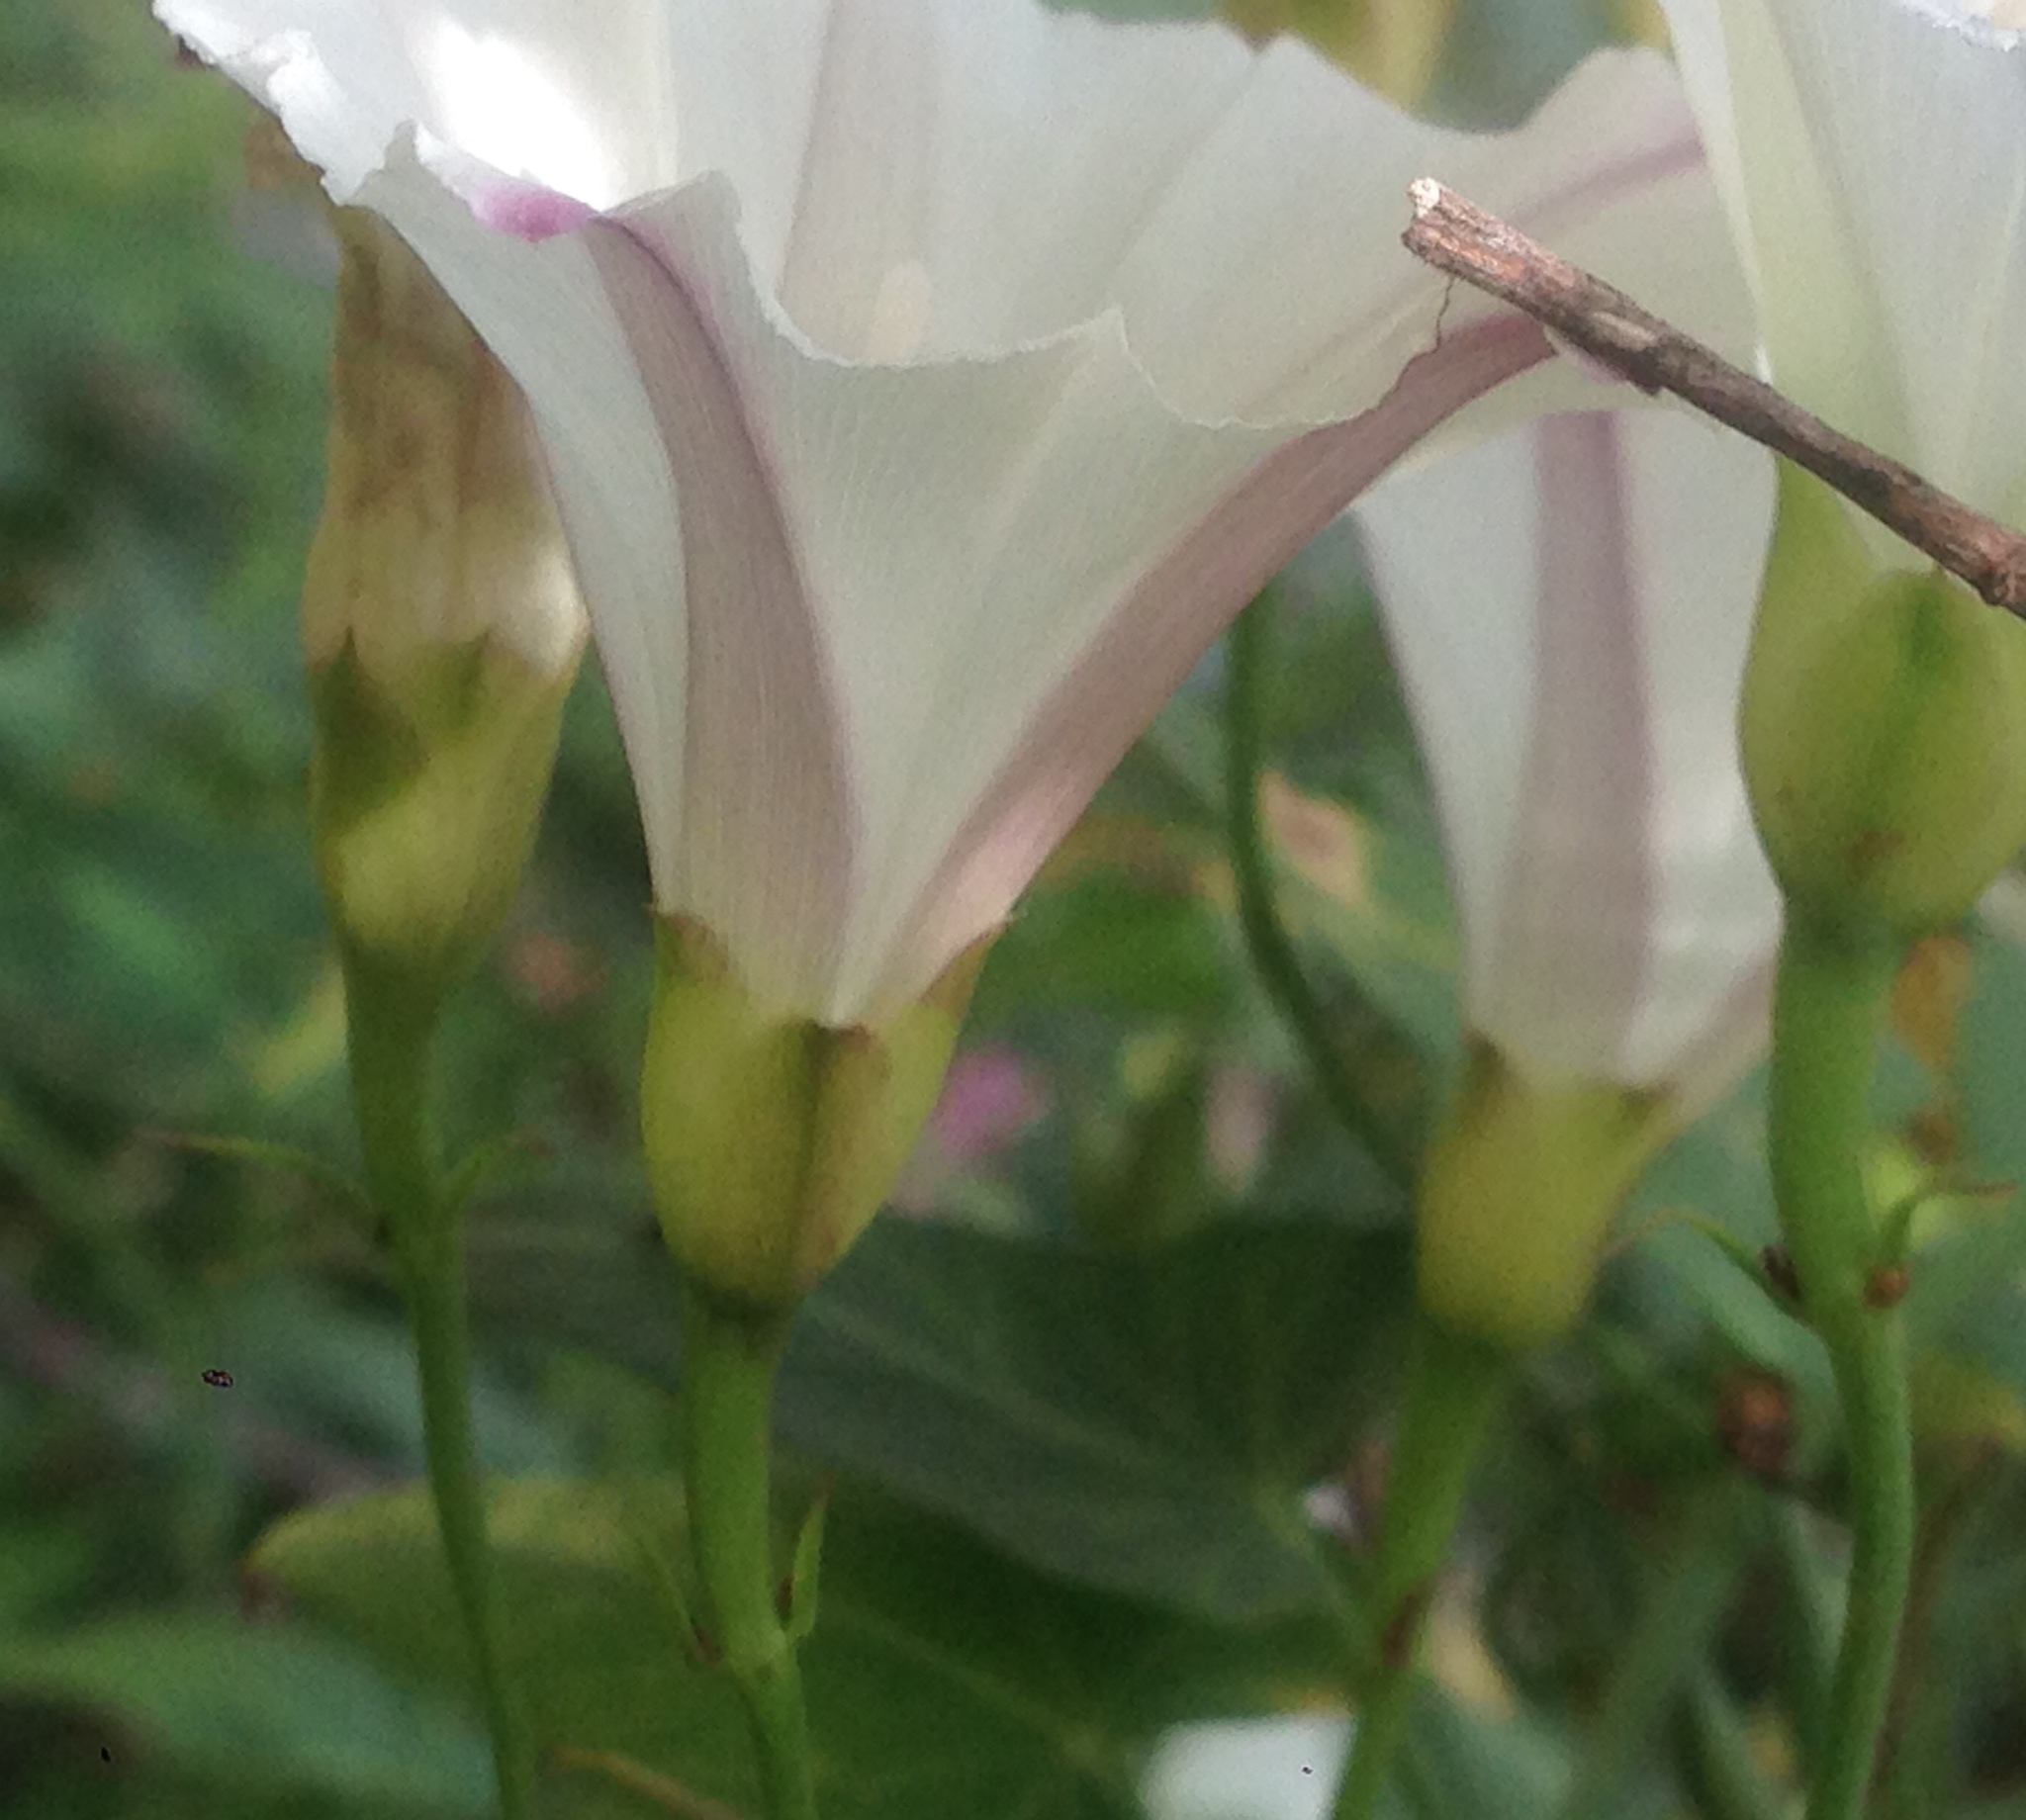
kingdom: Plantae
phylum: Tracheophyta
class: Magnoliopsida
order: Solanales
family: Convolvulaceae
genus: Calystegia
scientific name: Calystegia purpurata
